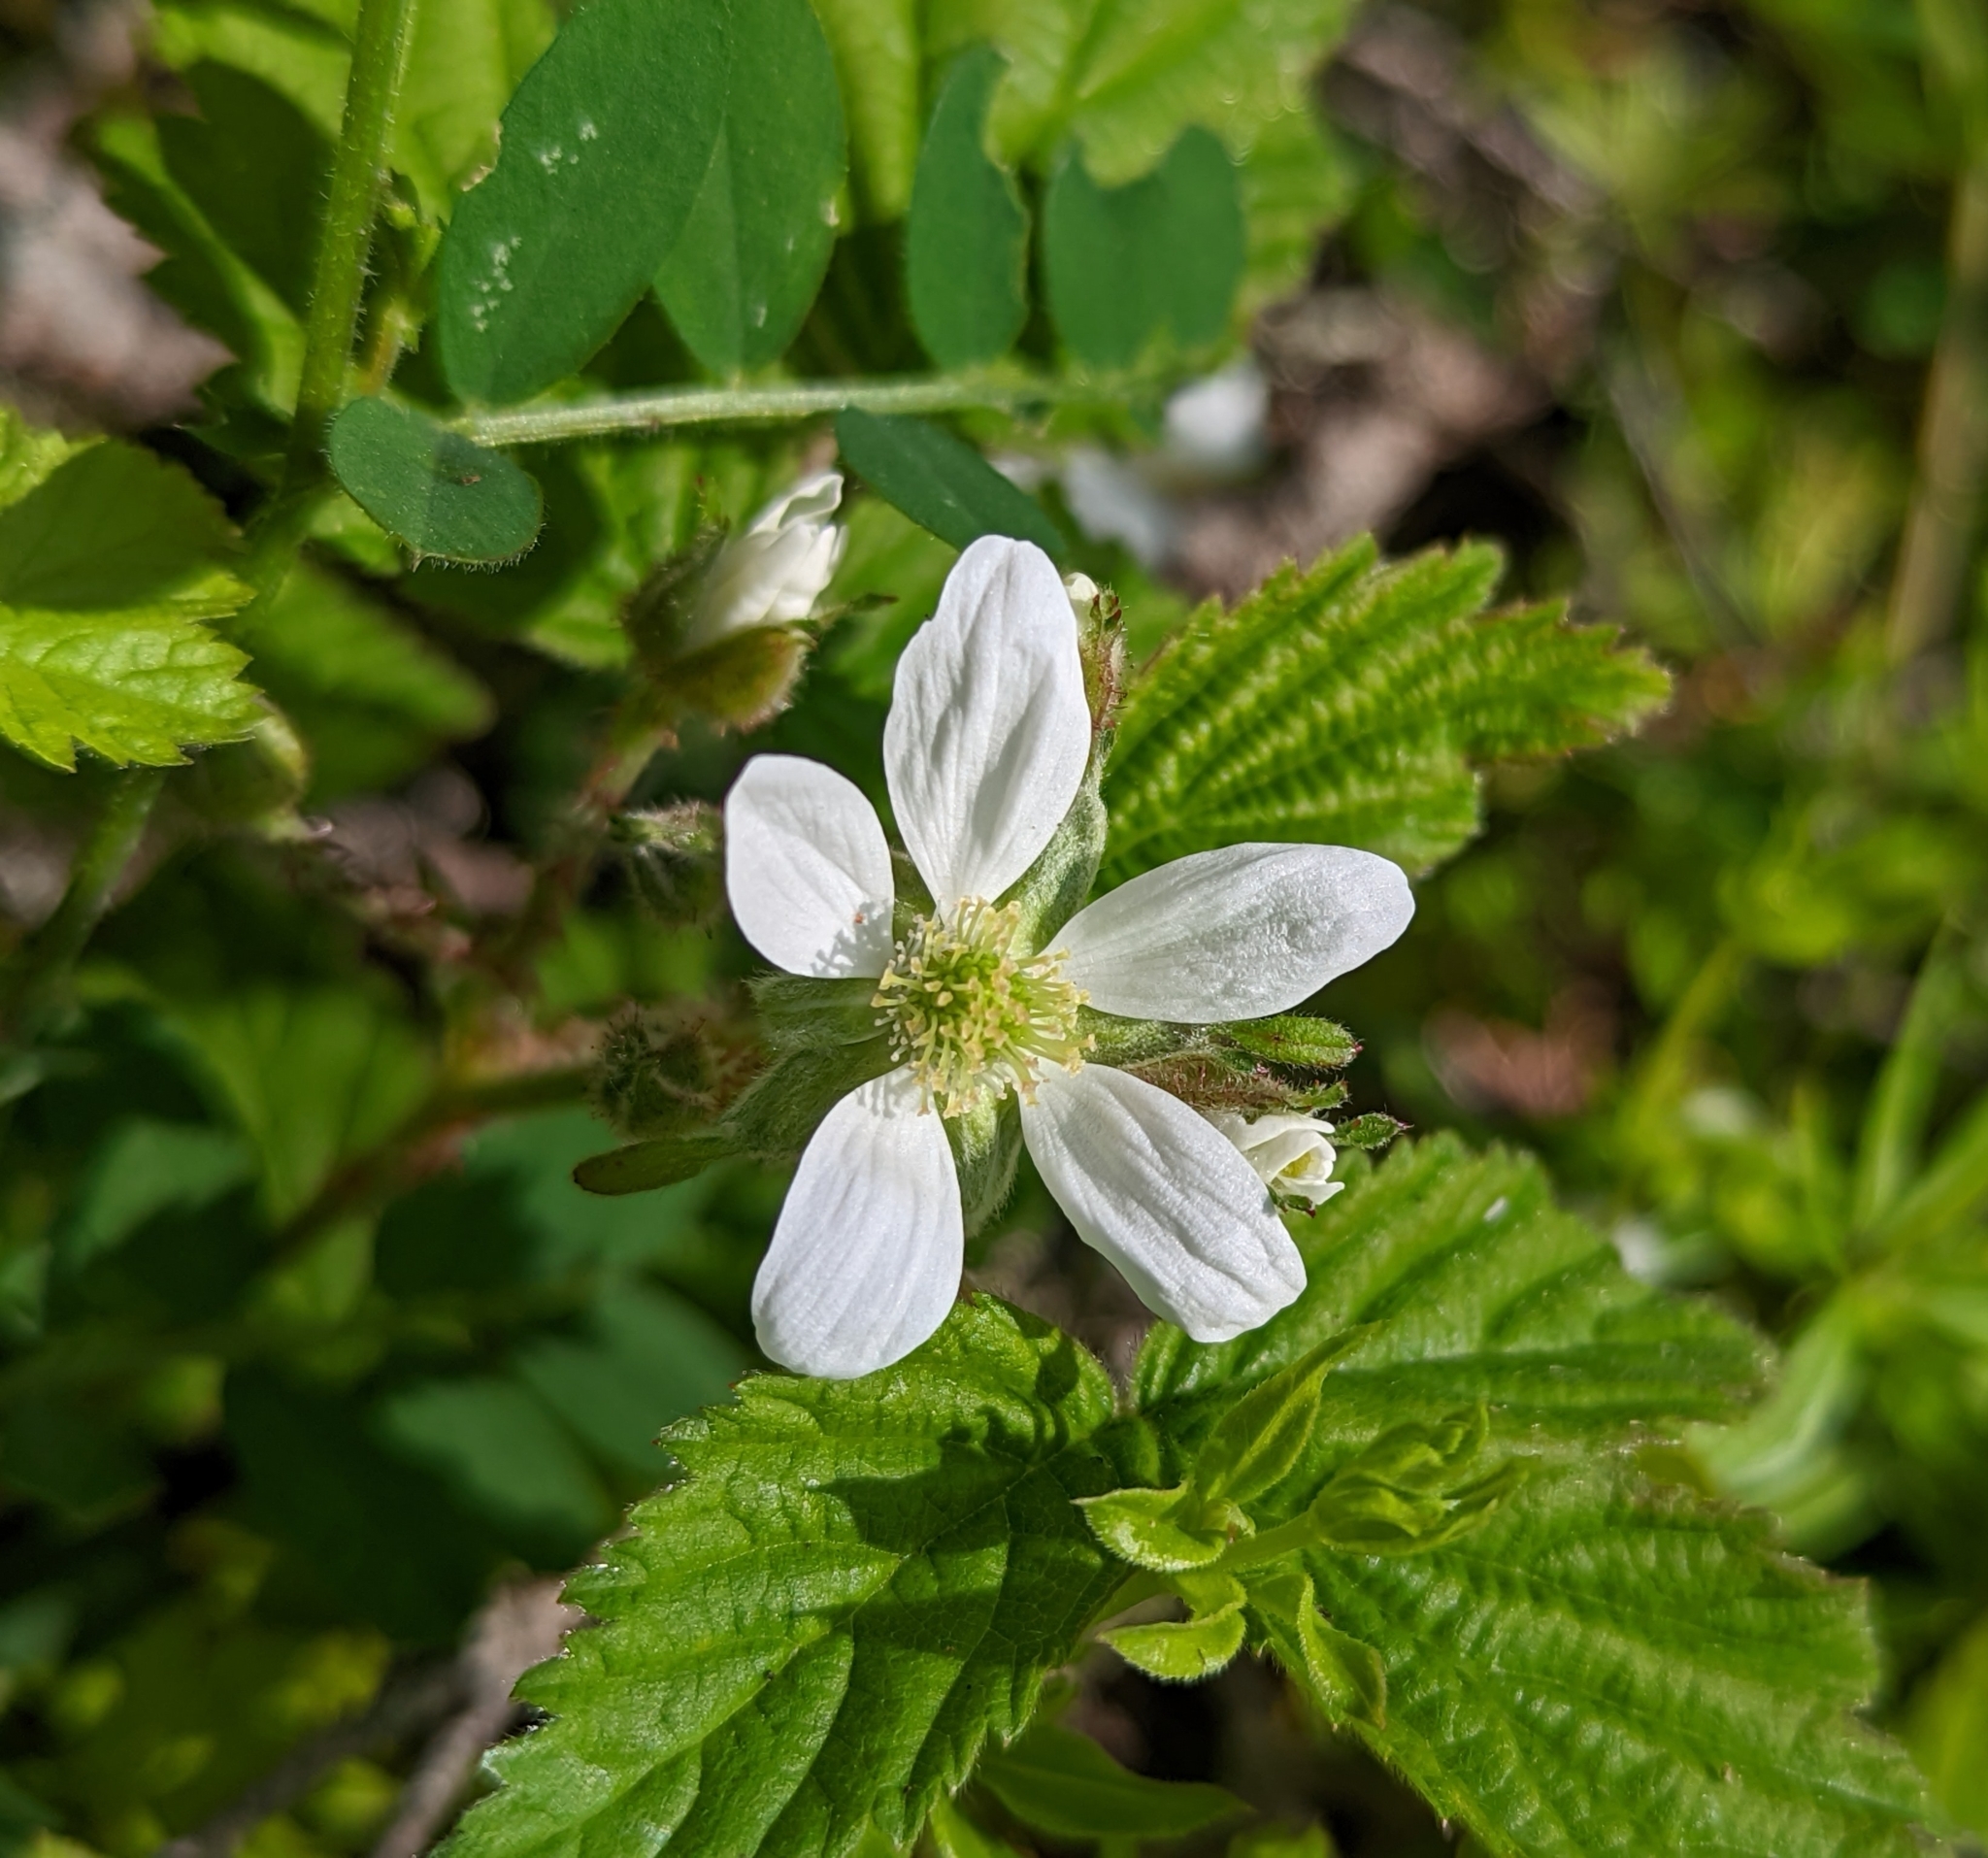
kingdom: Plantae
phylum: Tracheophyta
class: Magnoliopsida
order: Rosales
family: Rosaceae
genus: Rubus
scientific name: Rubus ursinus
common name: Pacific blackberry
